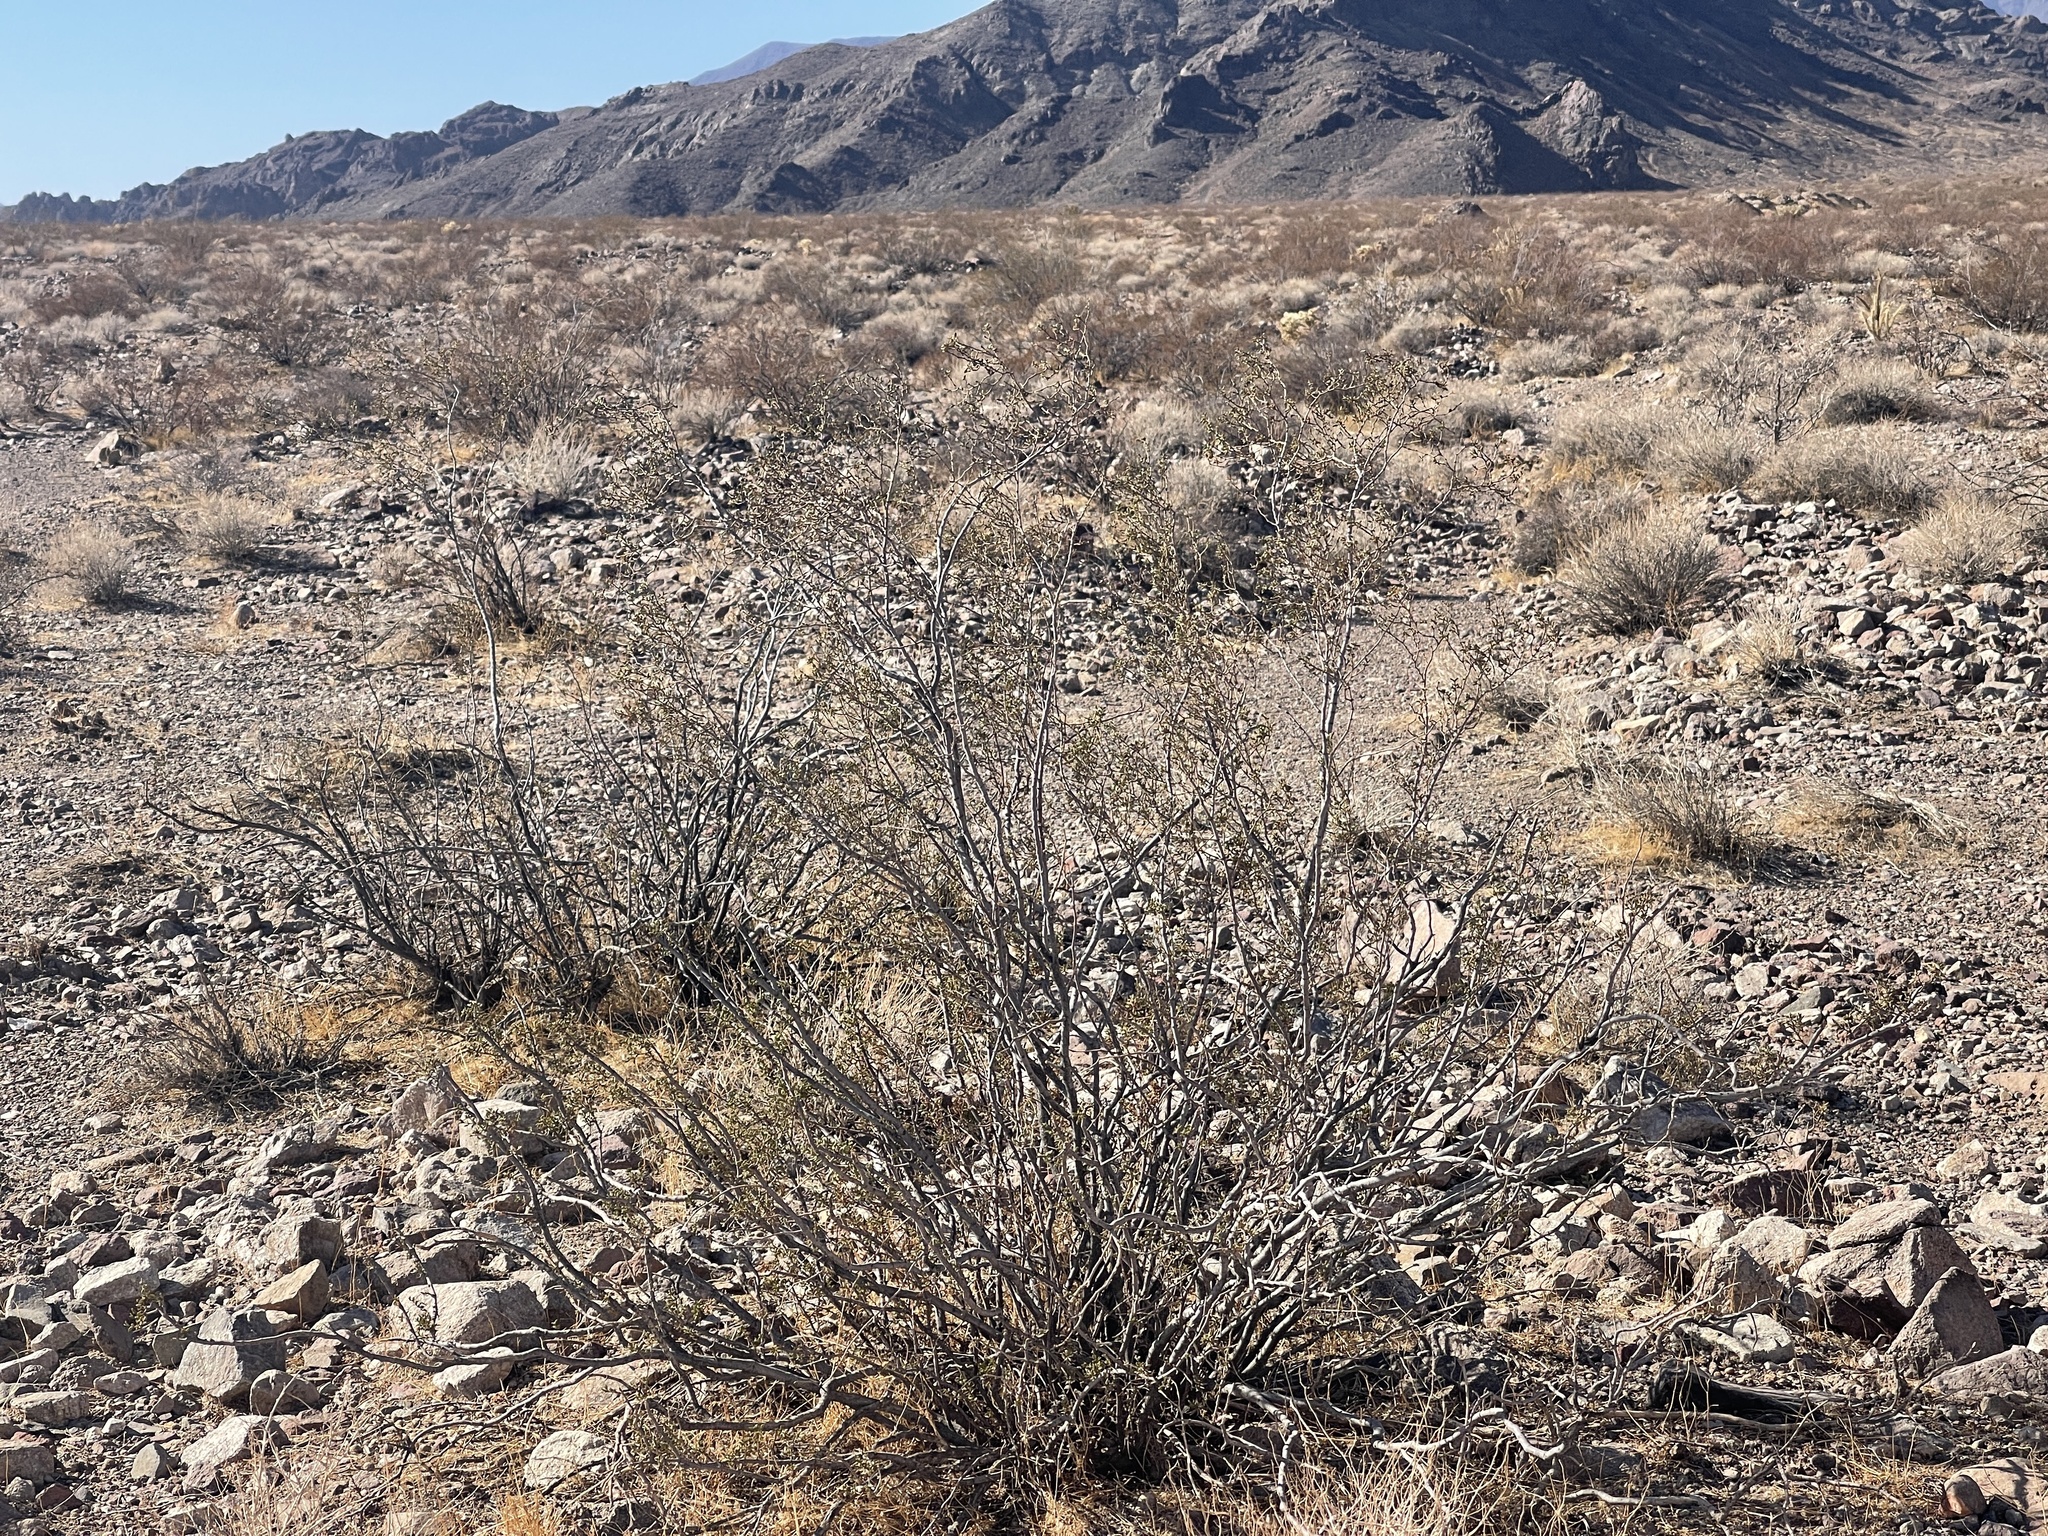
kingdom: Plantae
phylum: Tracheophyta
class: Magnoliopsida
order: Zygophyllales
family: Zygophyllaceae
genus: Larrea
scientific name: Larrea tridentata
